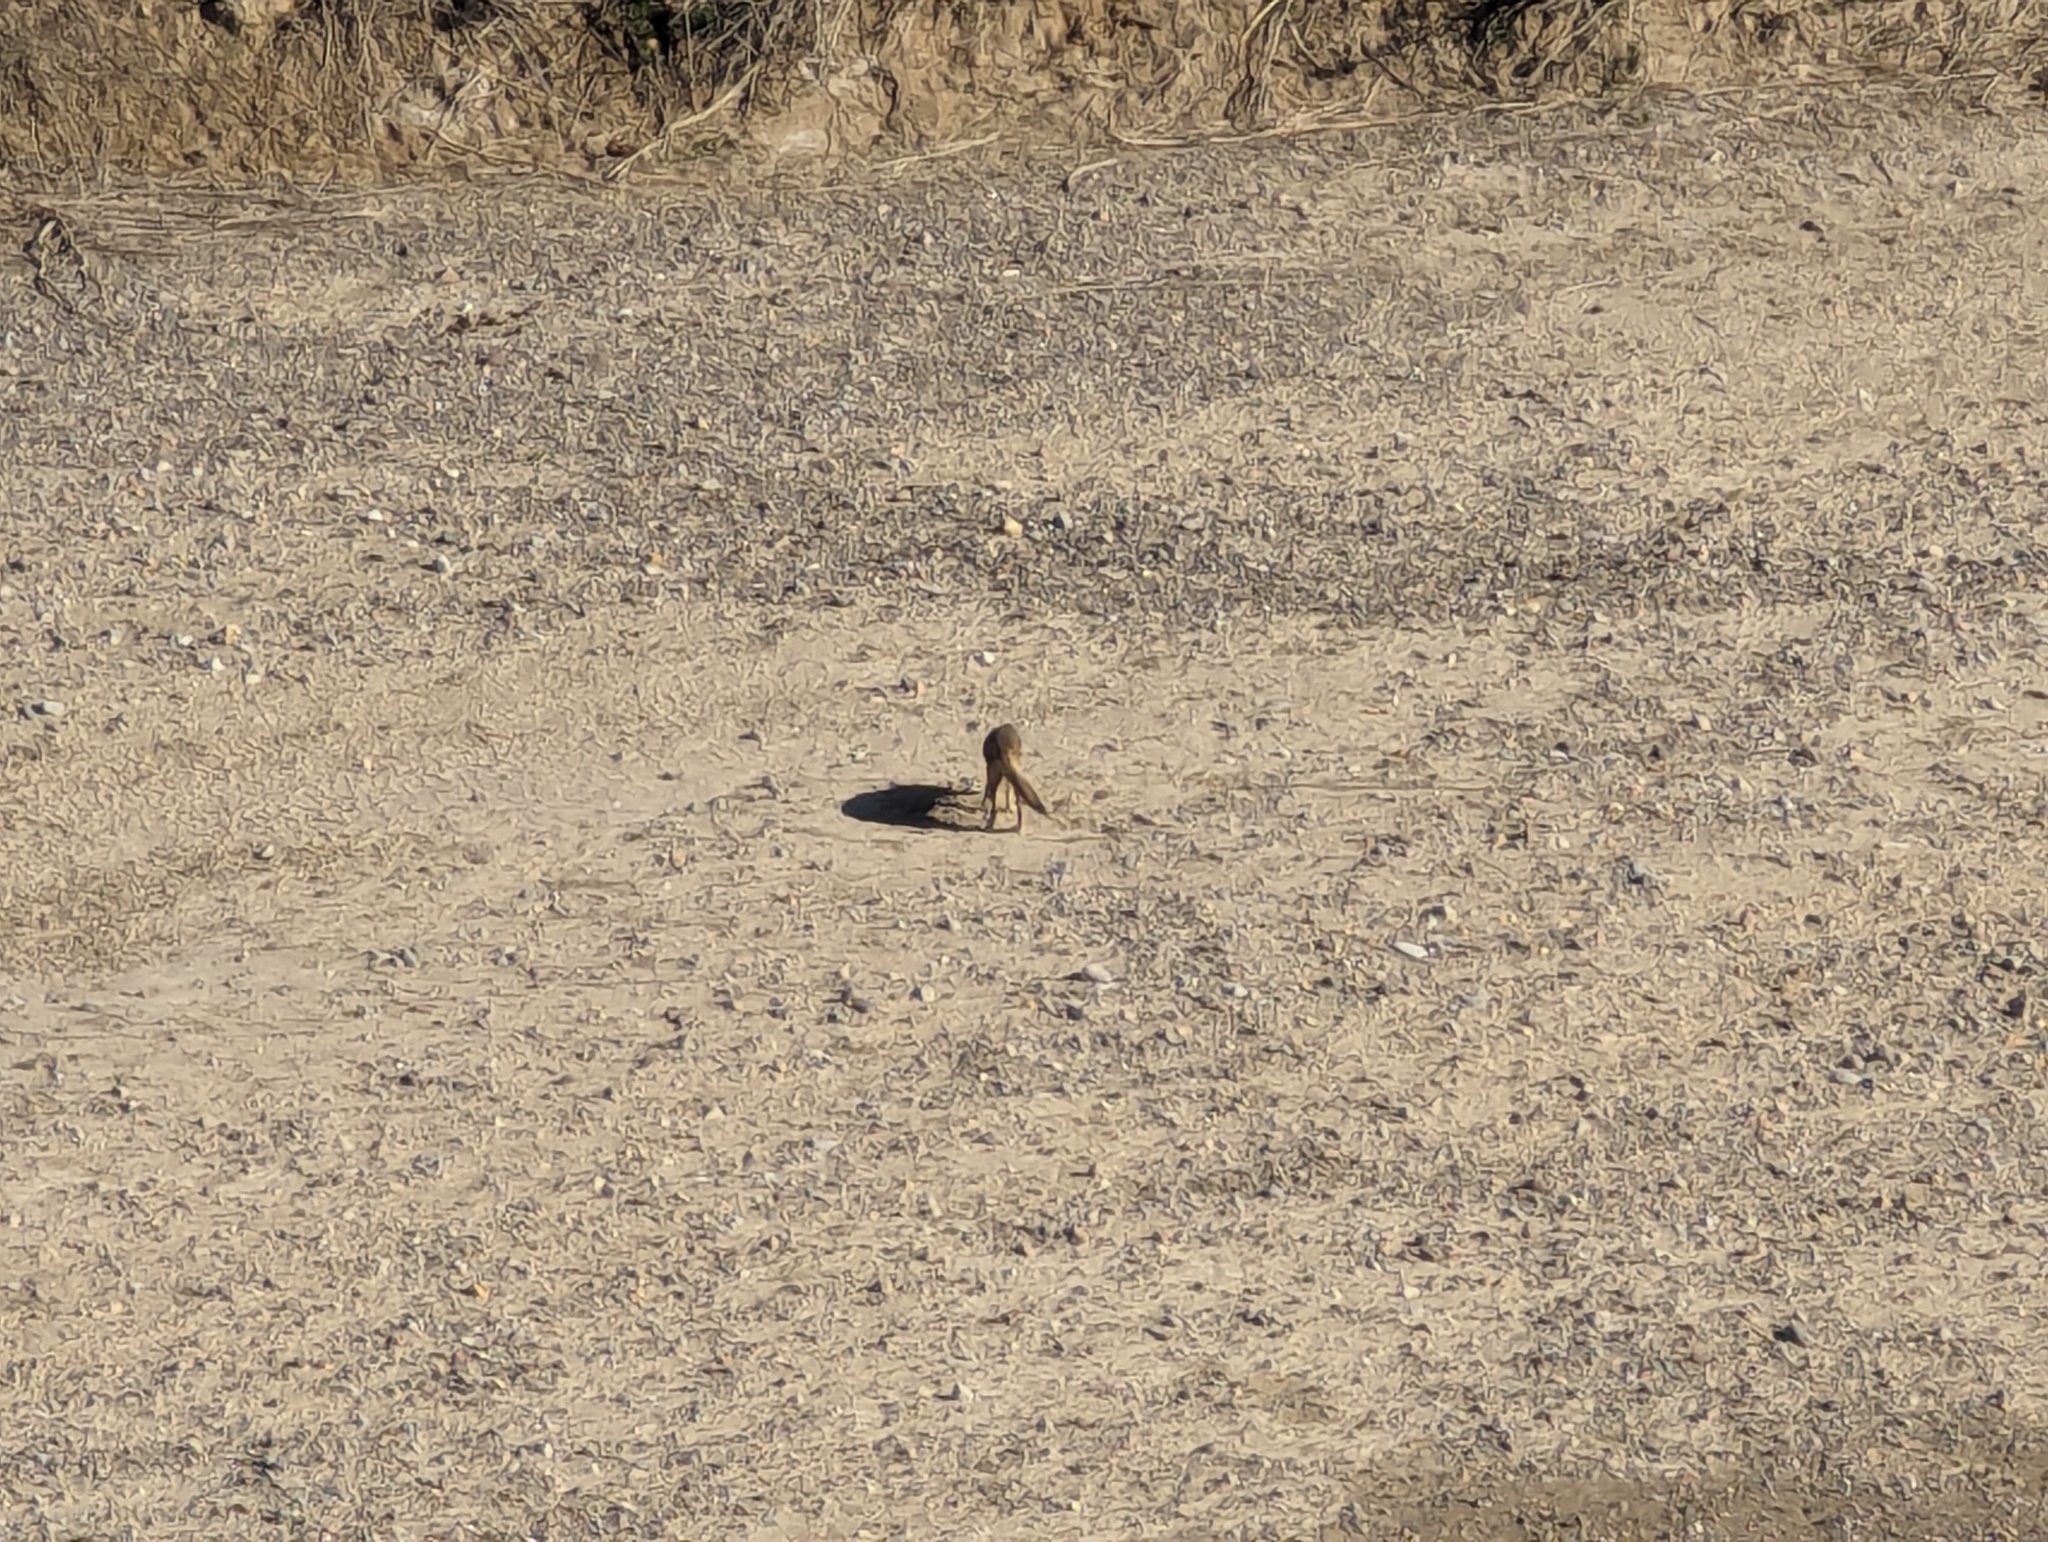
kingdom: Animalia
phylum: Chordata
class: Mammalia
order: Carnivora
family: Canidae
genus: Canis
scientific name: Canis latrans
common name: Coyote
